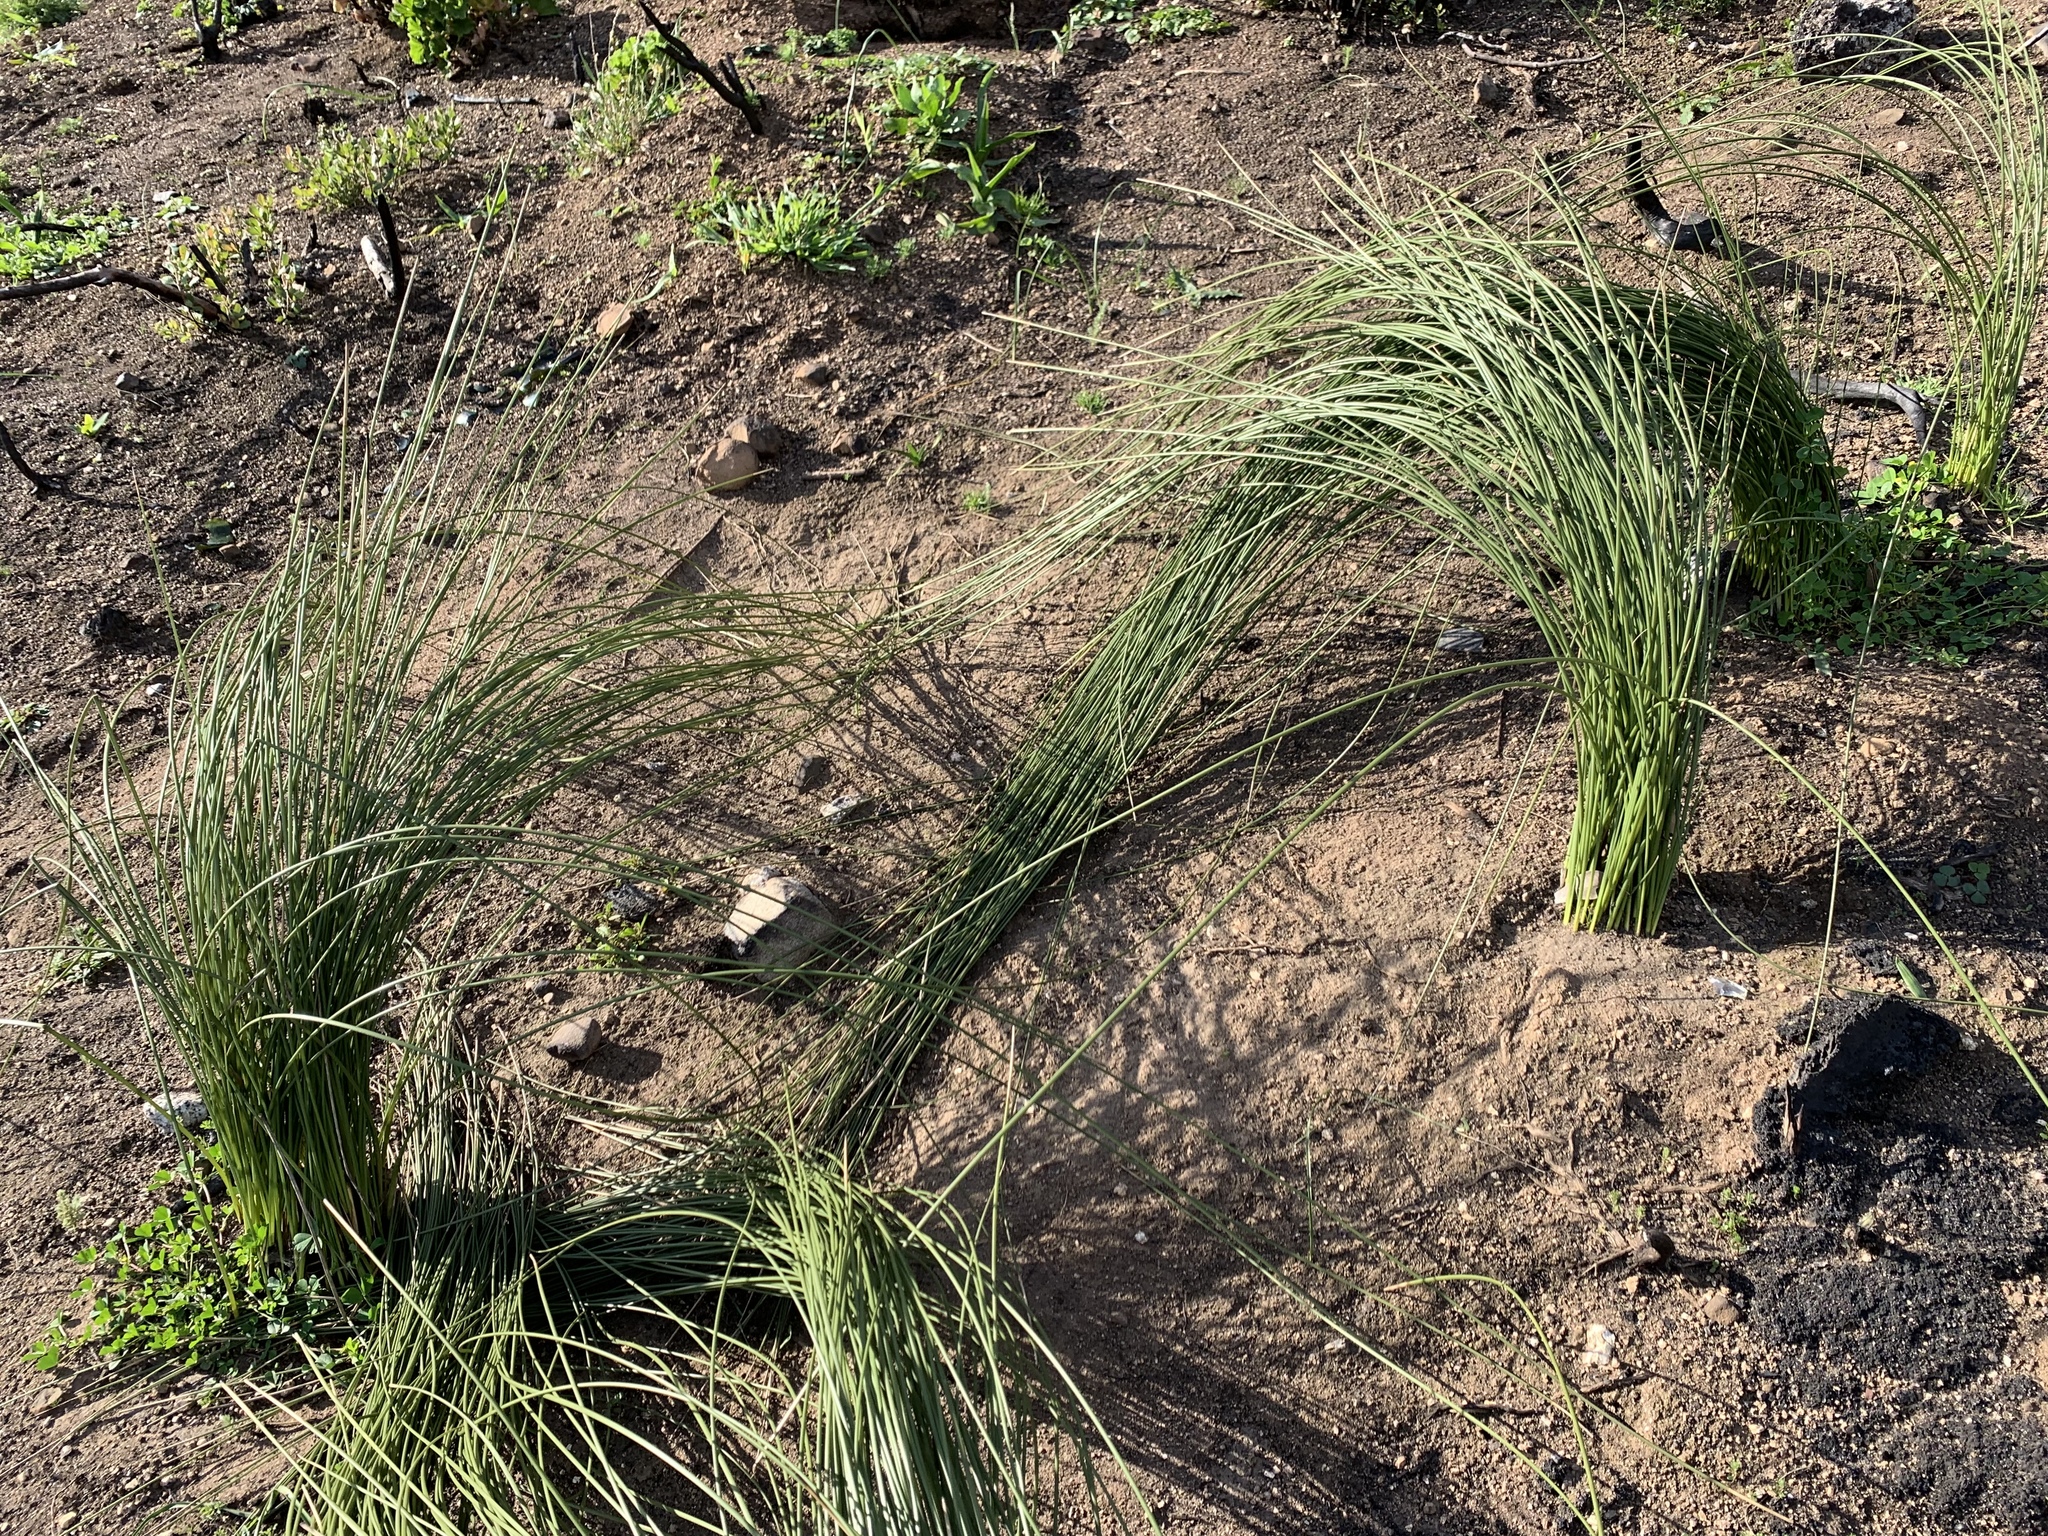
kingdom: Plantae
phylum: Tracheophyta
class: Liliopsida
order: Asparagales
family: Iridaceae
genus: Bobartia
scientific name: Bobartia indica
